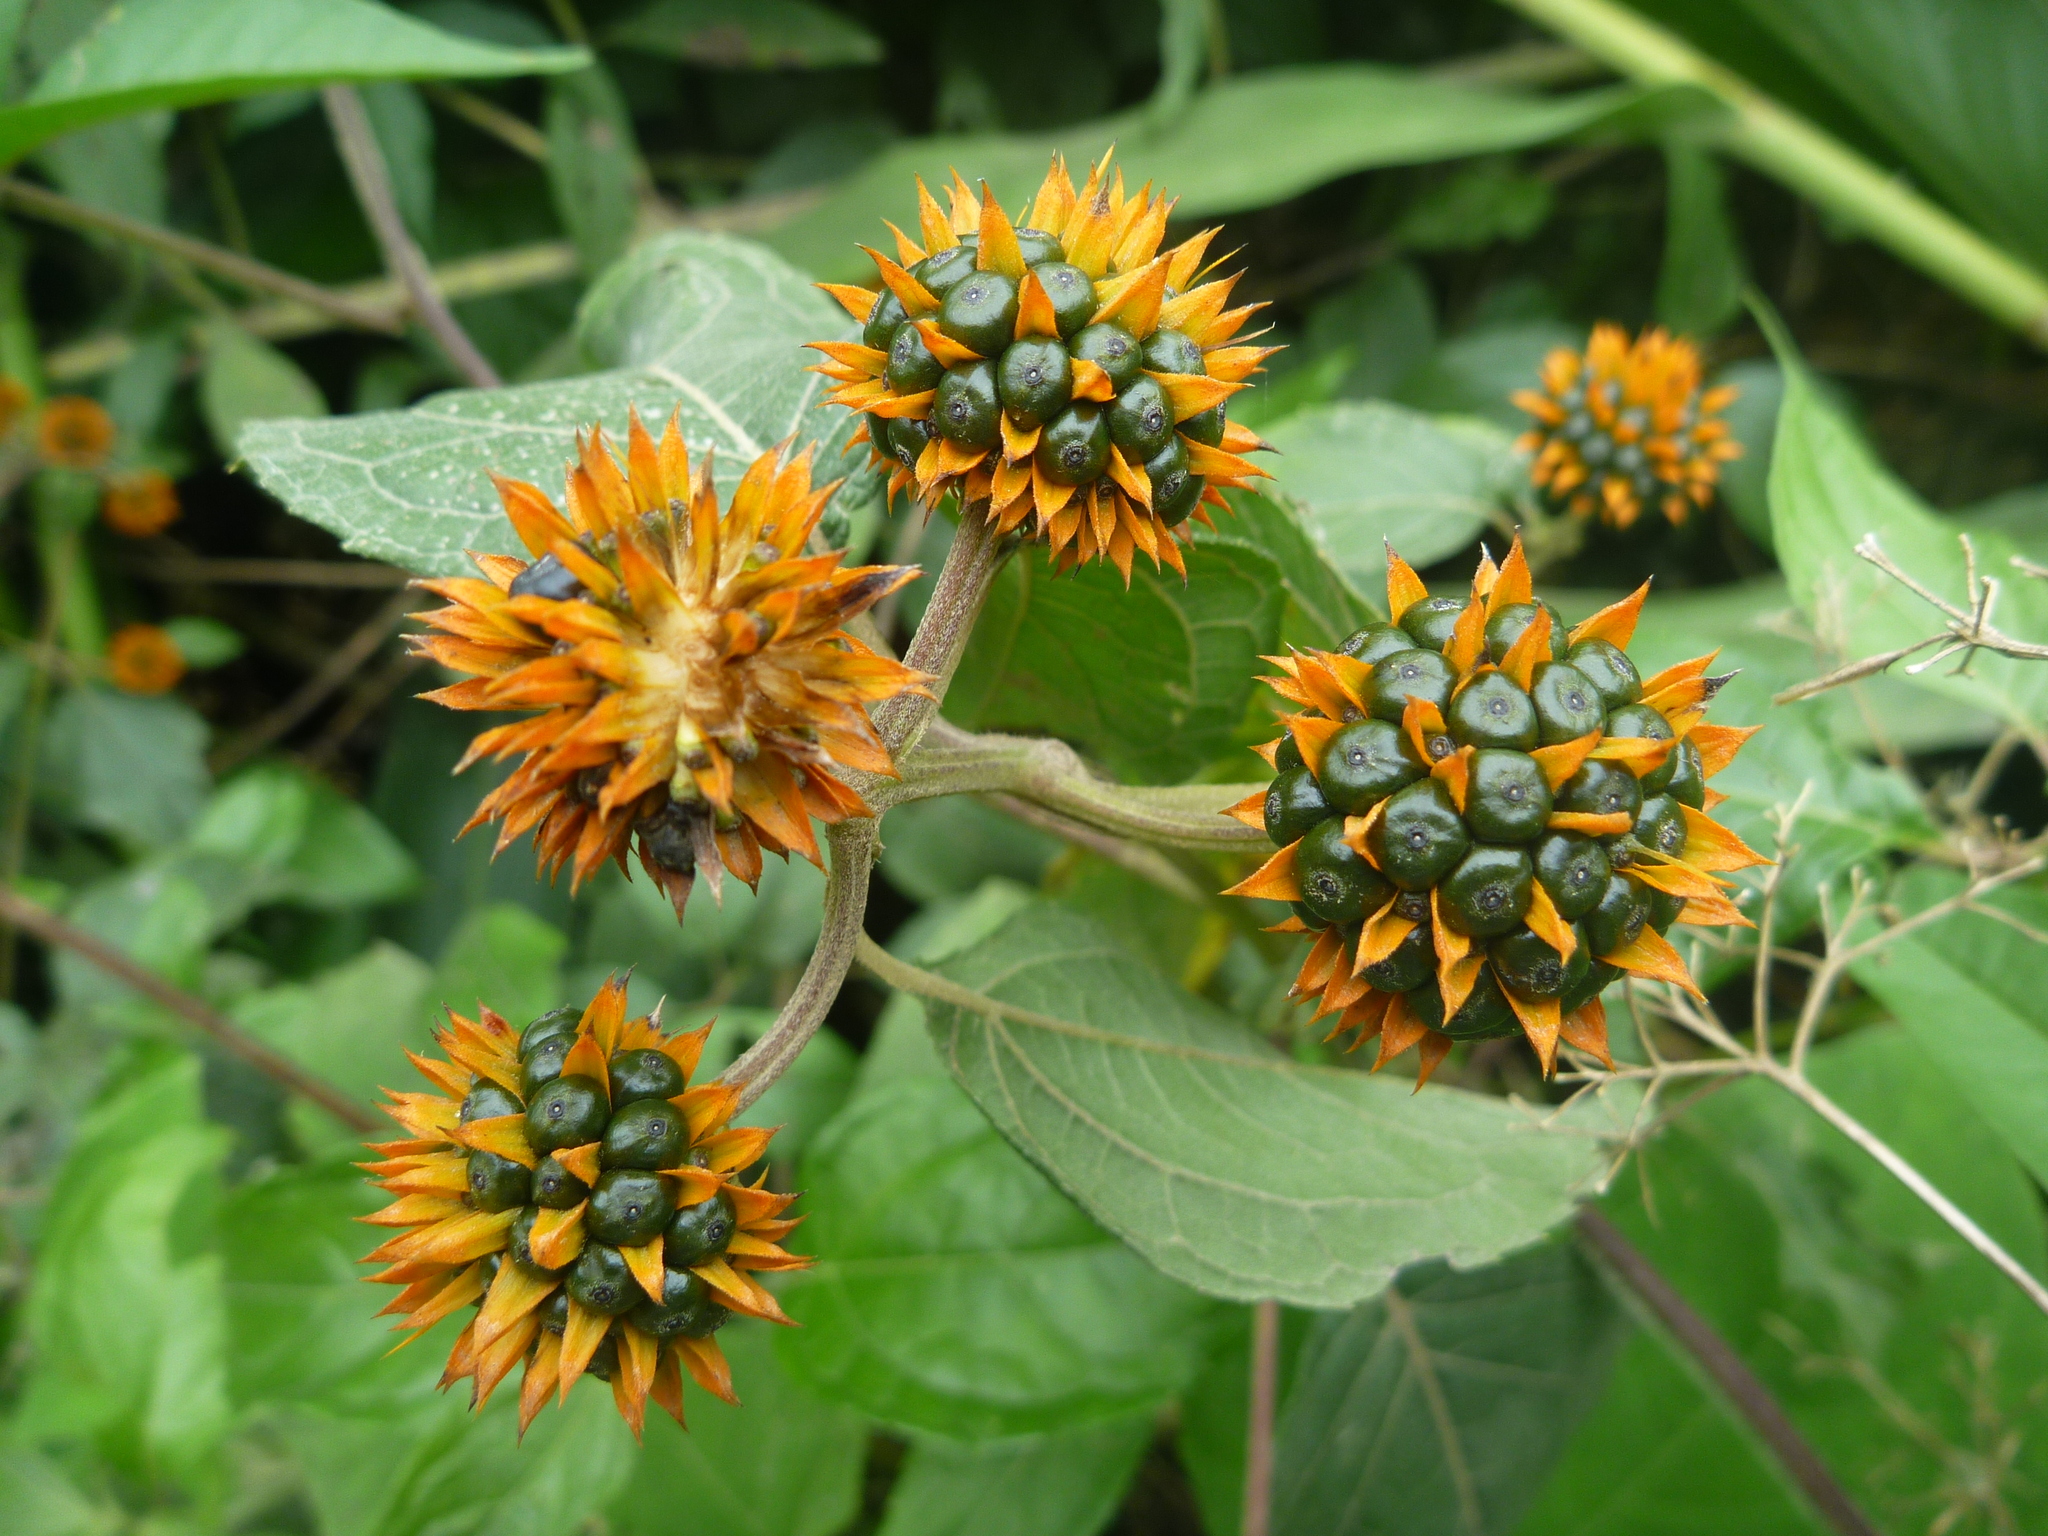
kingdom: Plantae
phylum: Tracheophyta
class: Magnoliopsida
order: Asterales
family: Asteraceae
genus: Tilesia
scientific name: Tilesia baccata
